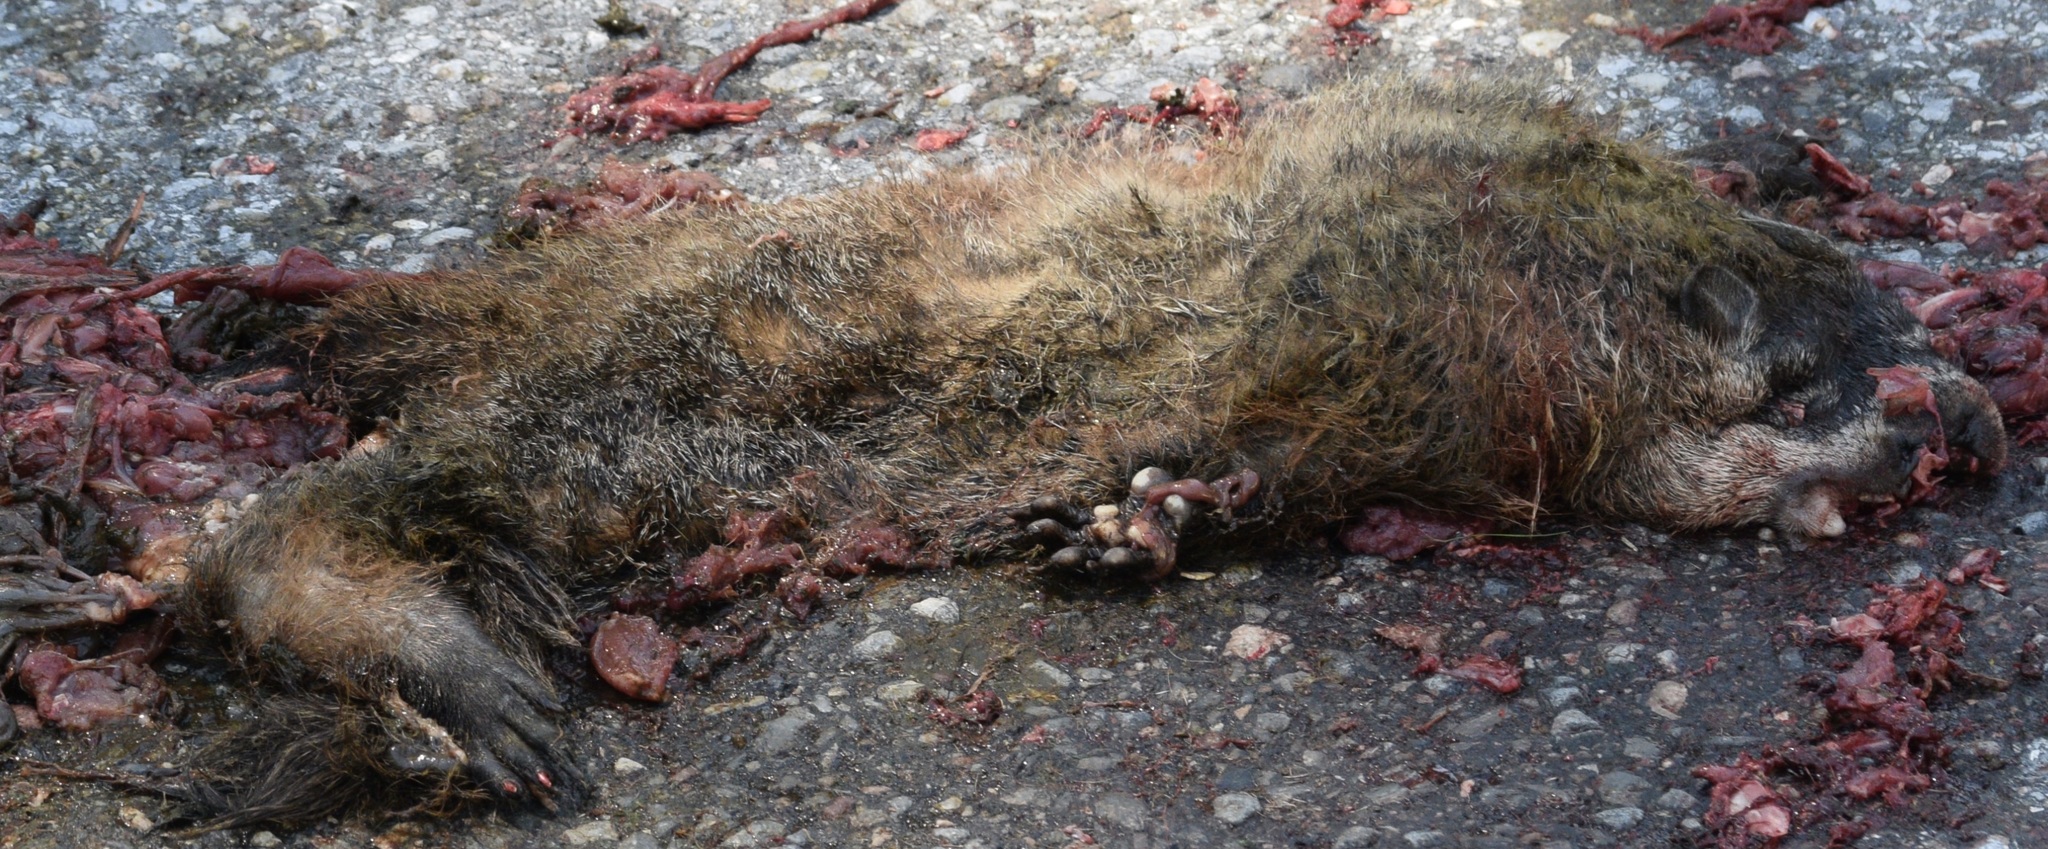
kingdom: Animalia
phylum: Chordata
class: Mammalia
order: Rodentia
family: Sciuridae
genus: Marmota
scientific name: Marmota monax
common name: Groundhog
